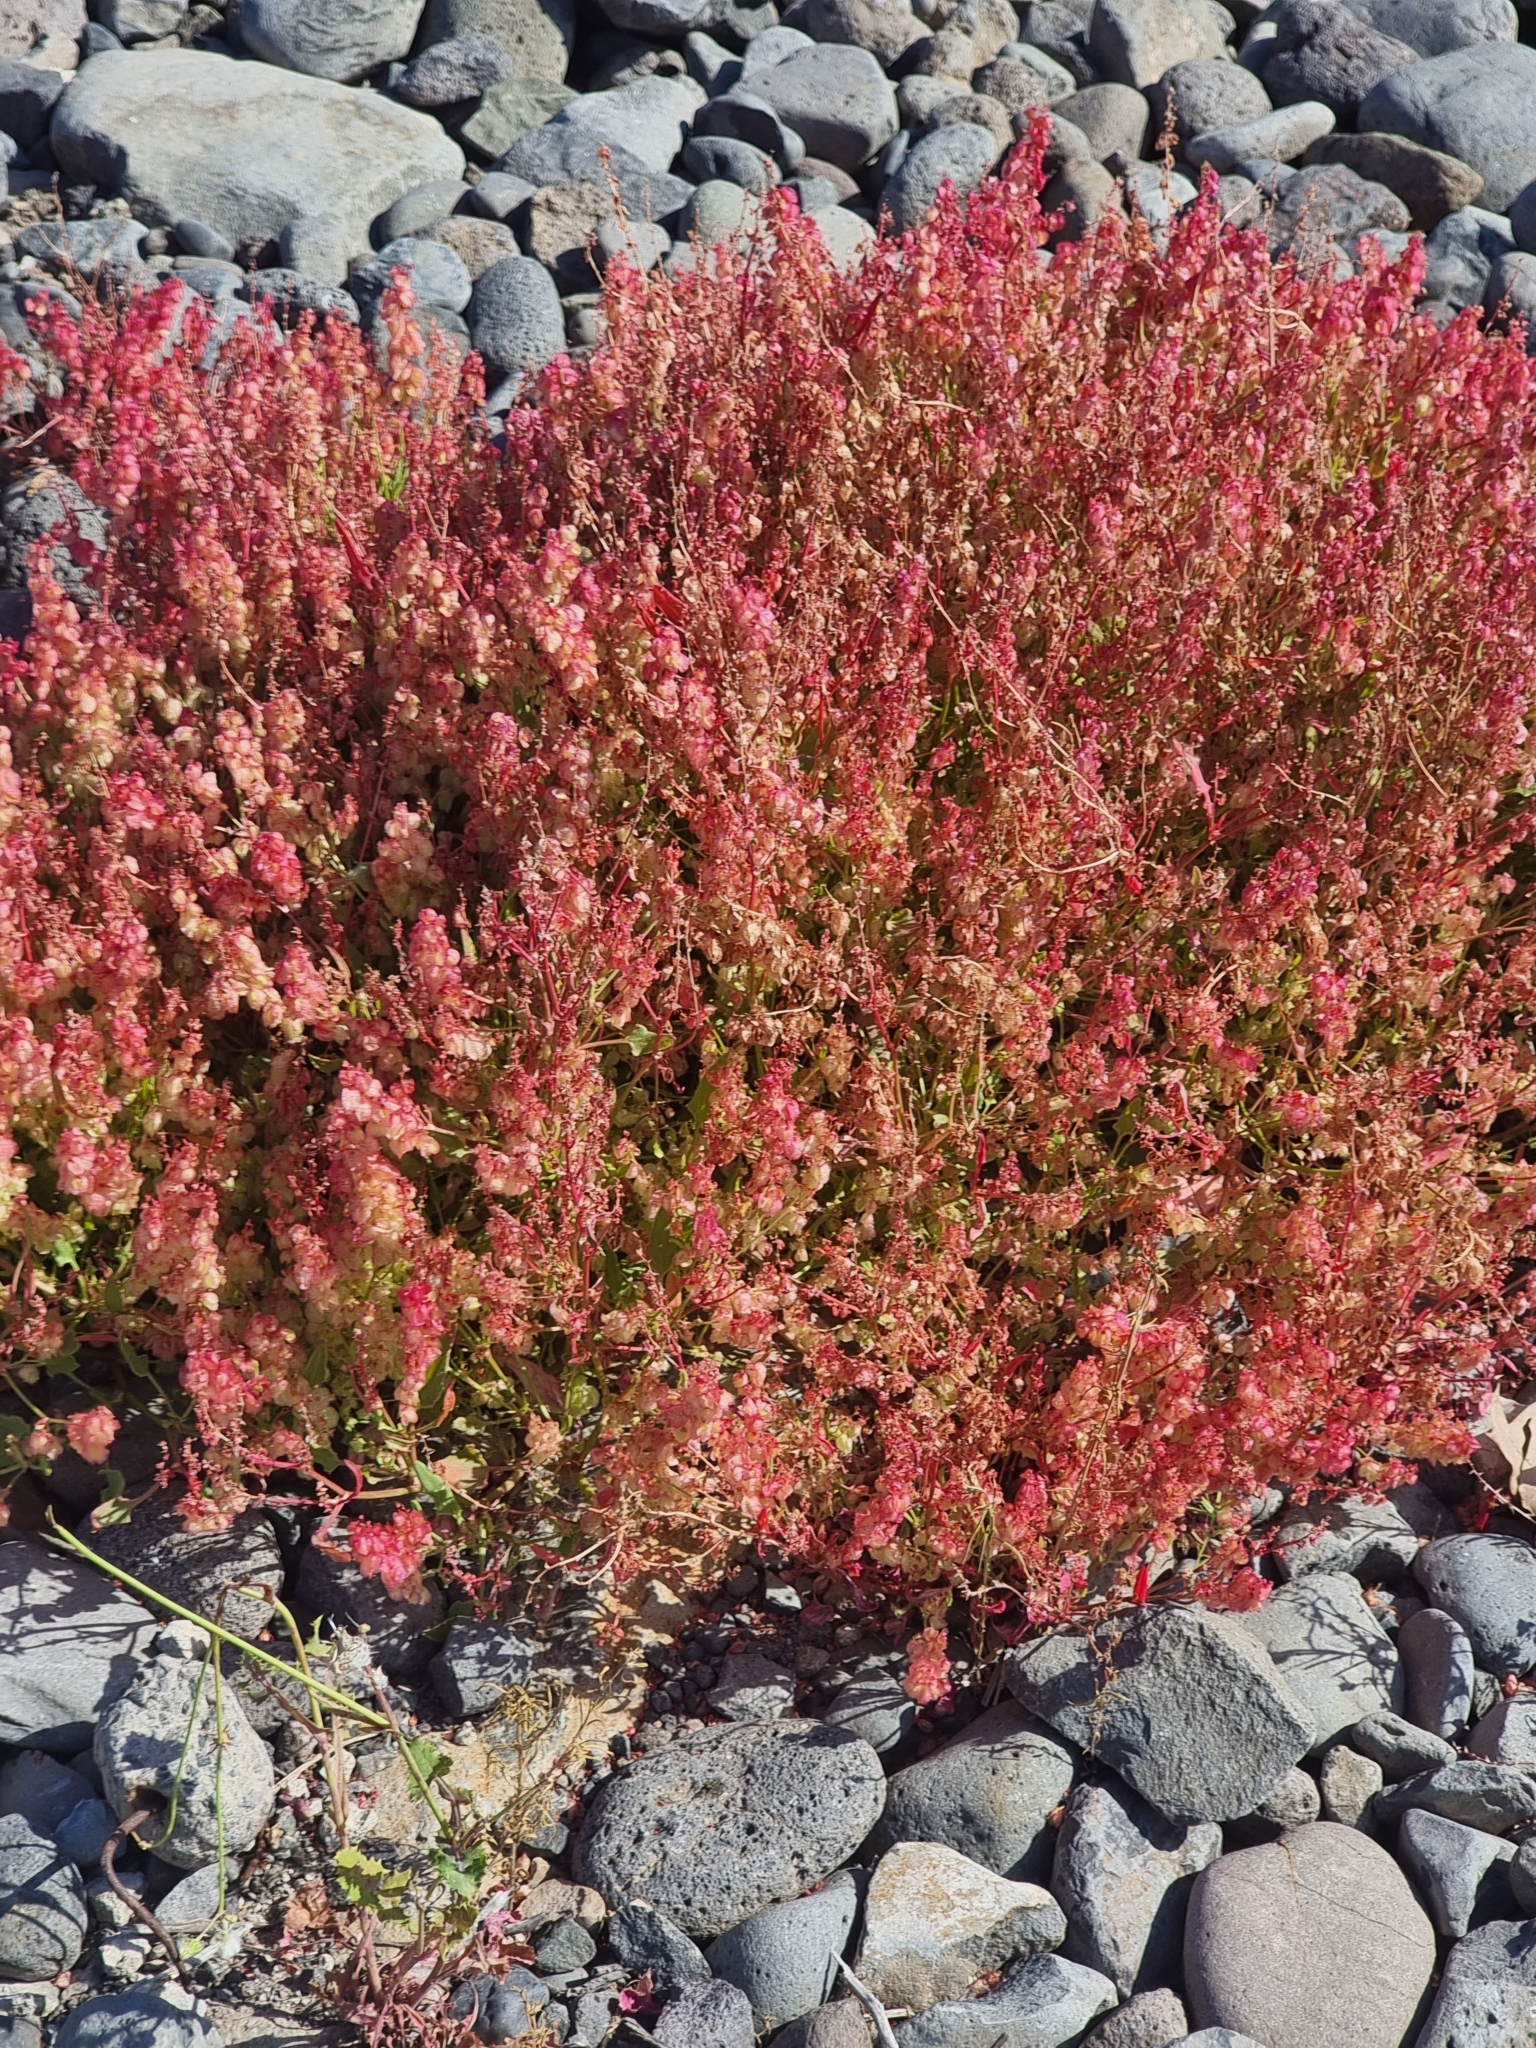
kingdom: Plantae
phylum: Tracheophyta
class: Magnoliopsida
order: Caryophyllales
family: Polygonaceae
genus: Rumex
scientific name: Rumex simpliciflorus
